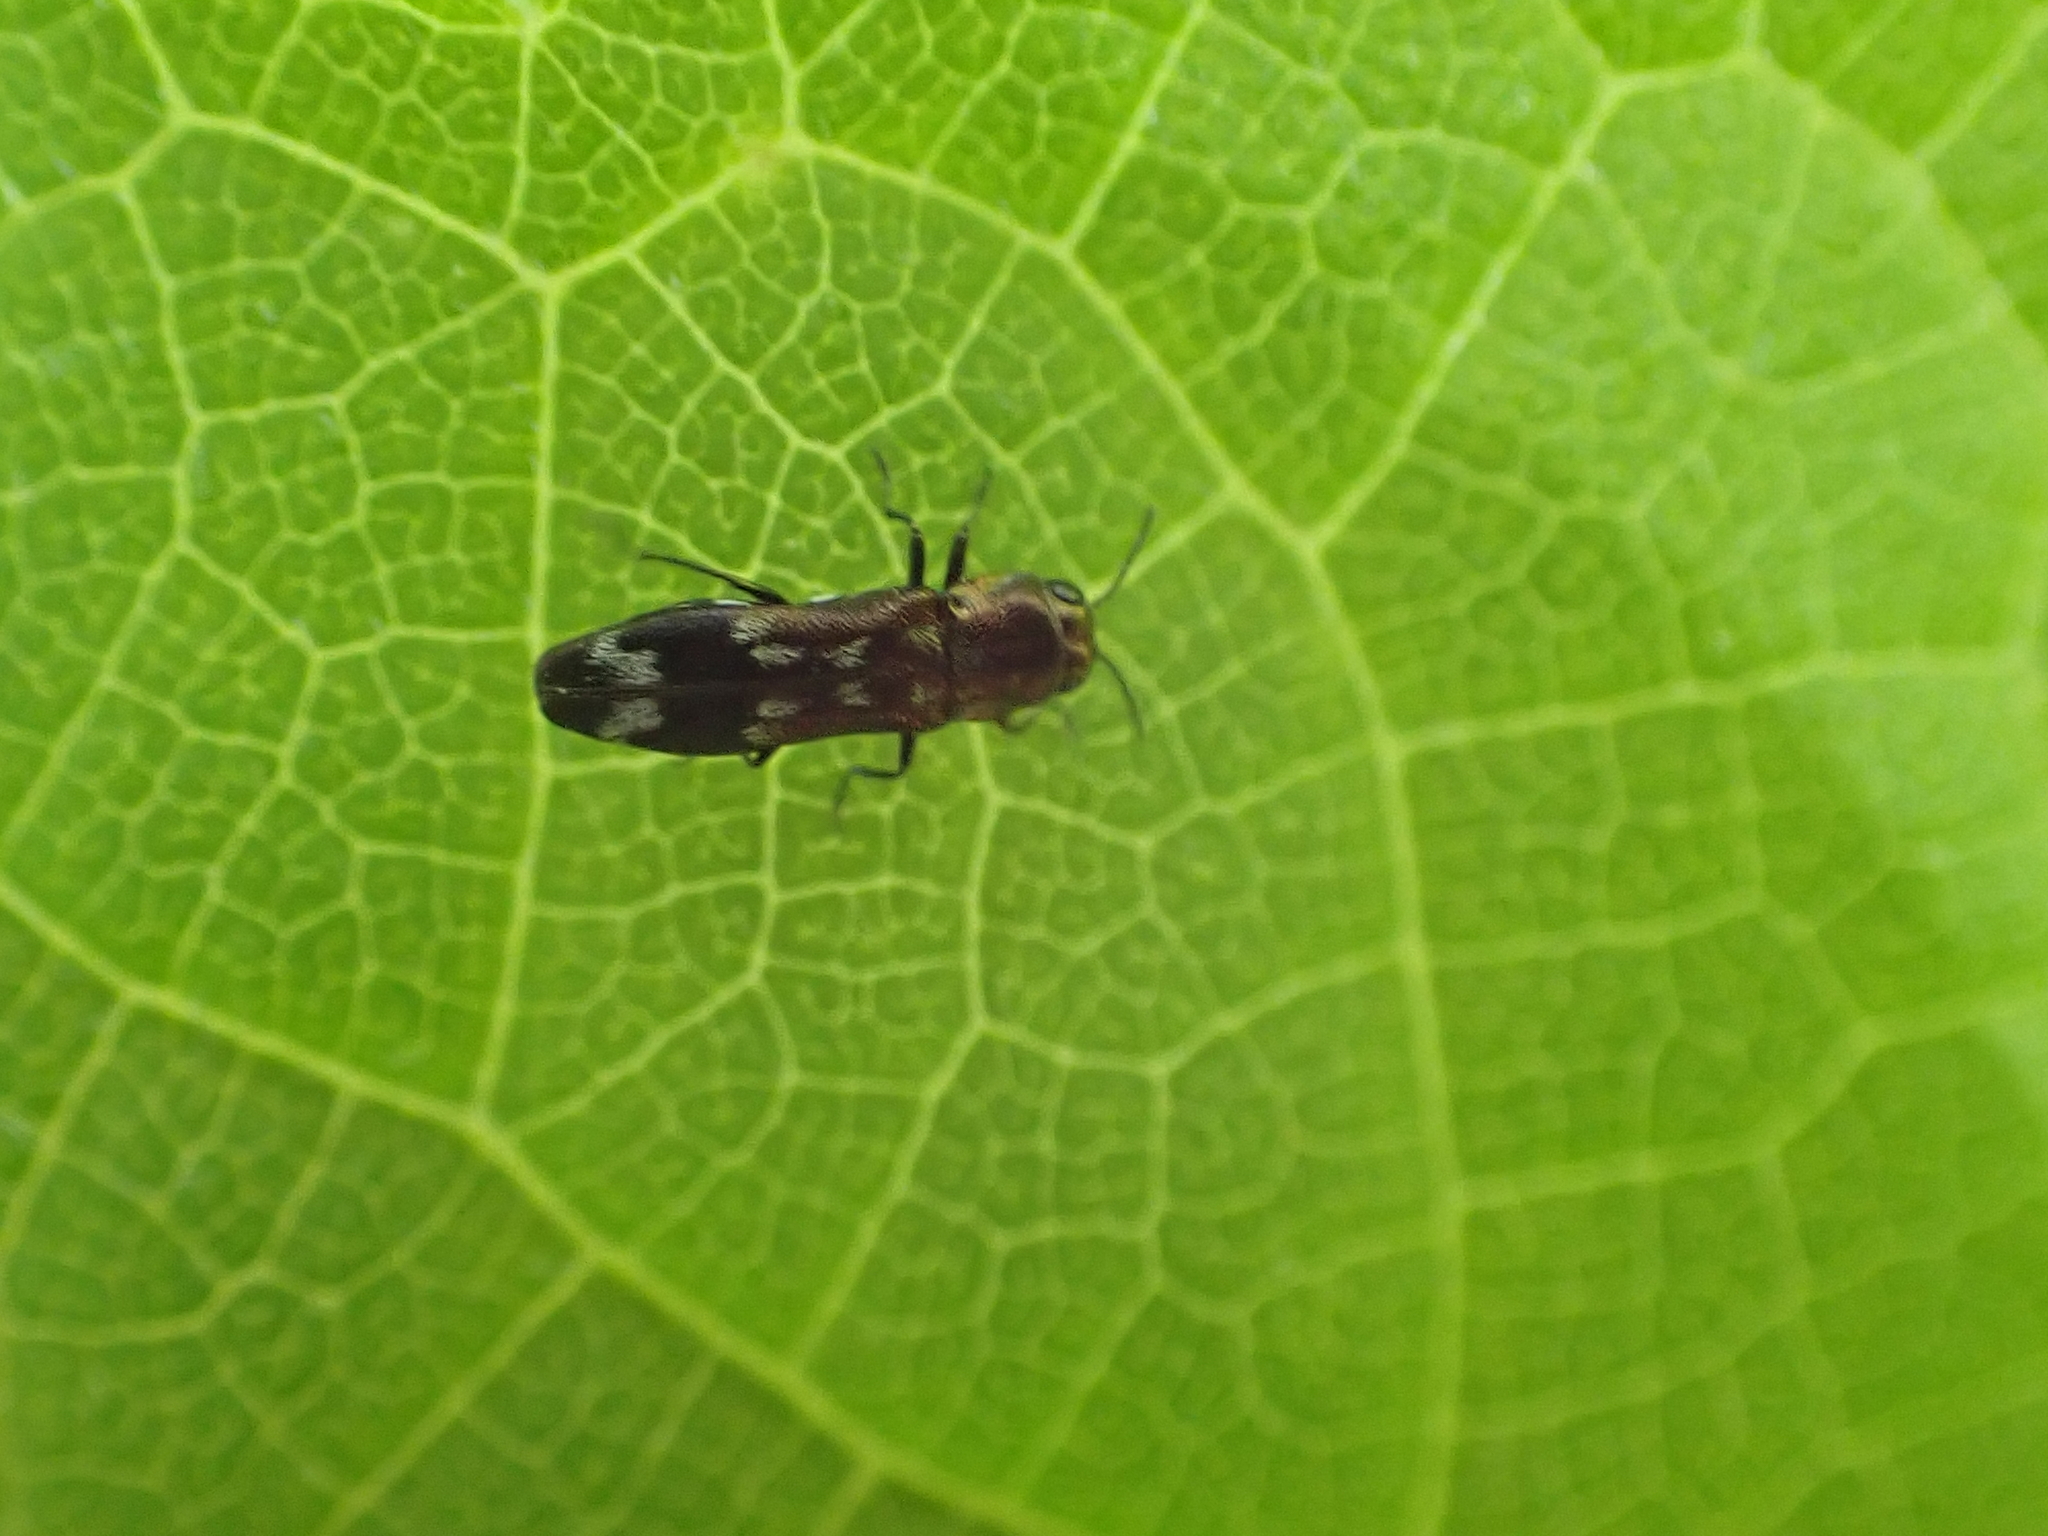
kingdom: Animalia
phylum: Arthropoda
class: Insecta
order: Coleoptera
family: Buprestidae
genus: Agrilus
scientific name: Agrilus subcinctus
